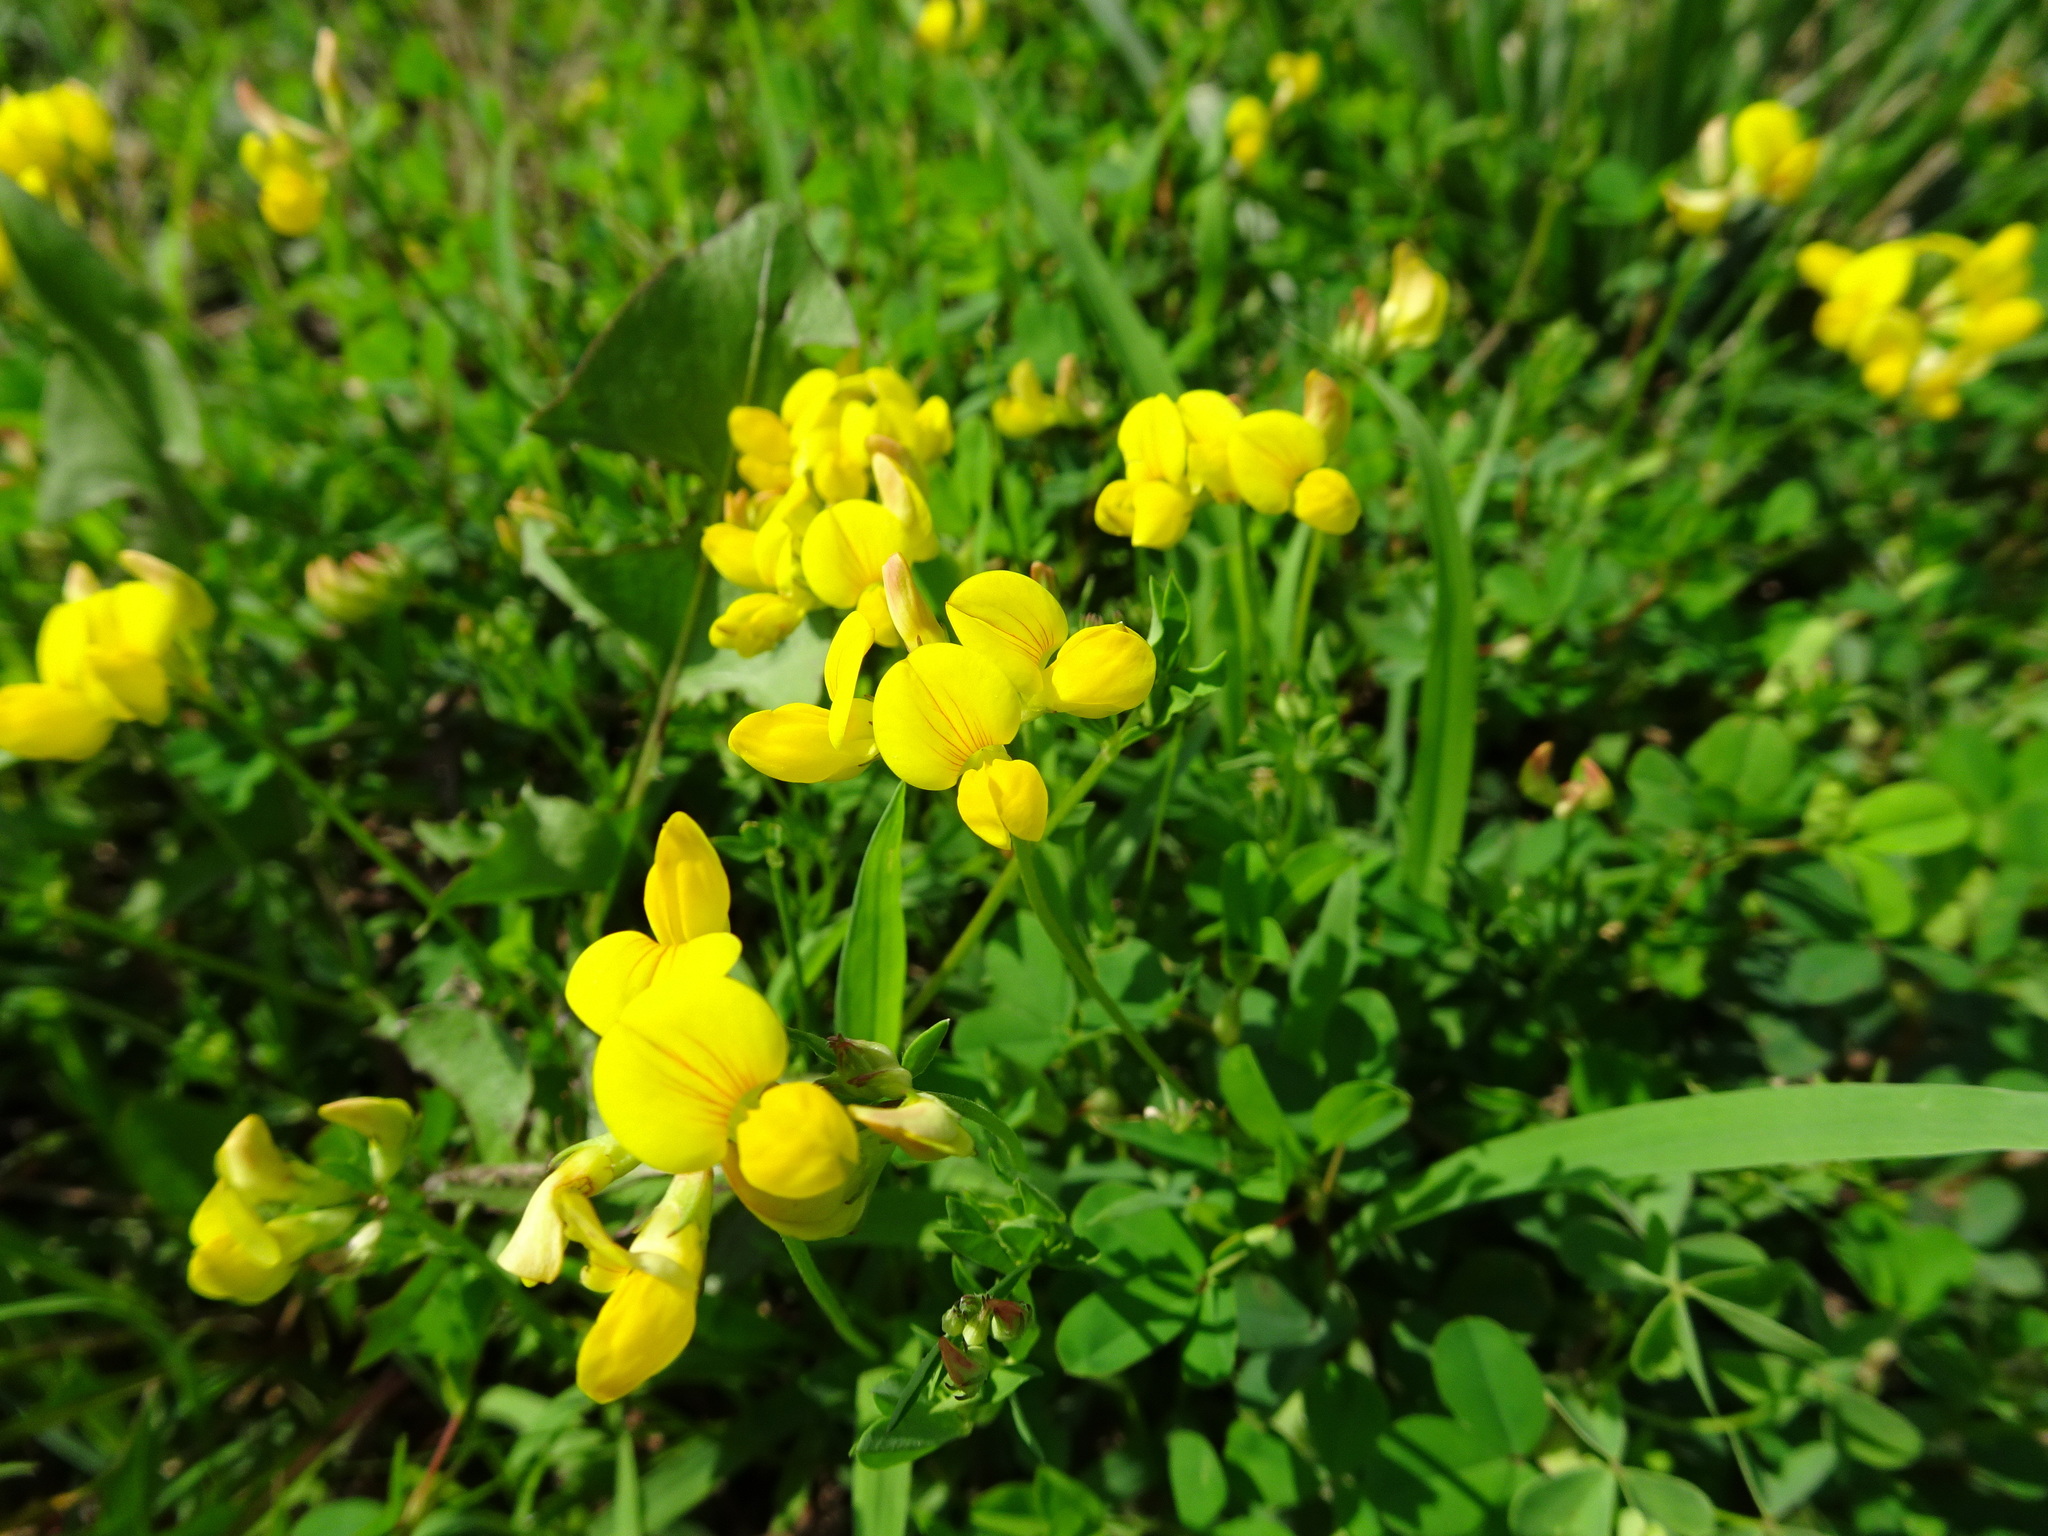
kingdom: Plantae
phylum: Tracheophyta
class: Magnoliopsida
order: Fabales
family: Fabaceae
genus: Lotus
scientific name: Lotus corniculatus
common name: Common bird's-foot-trefoil
